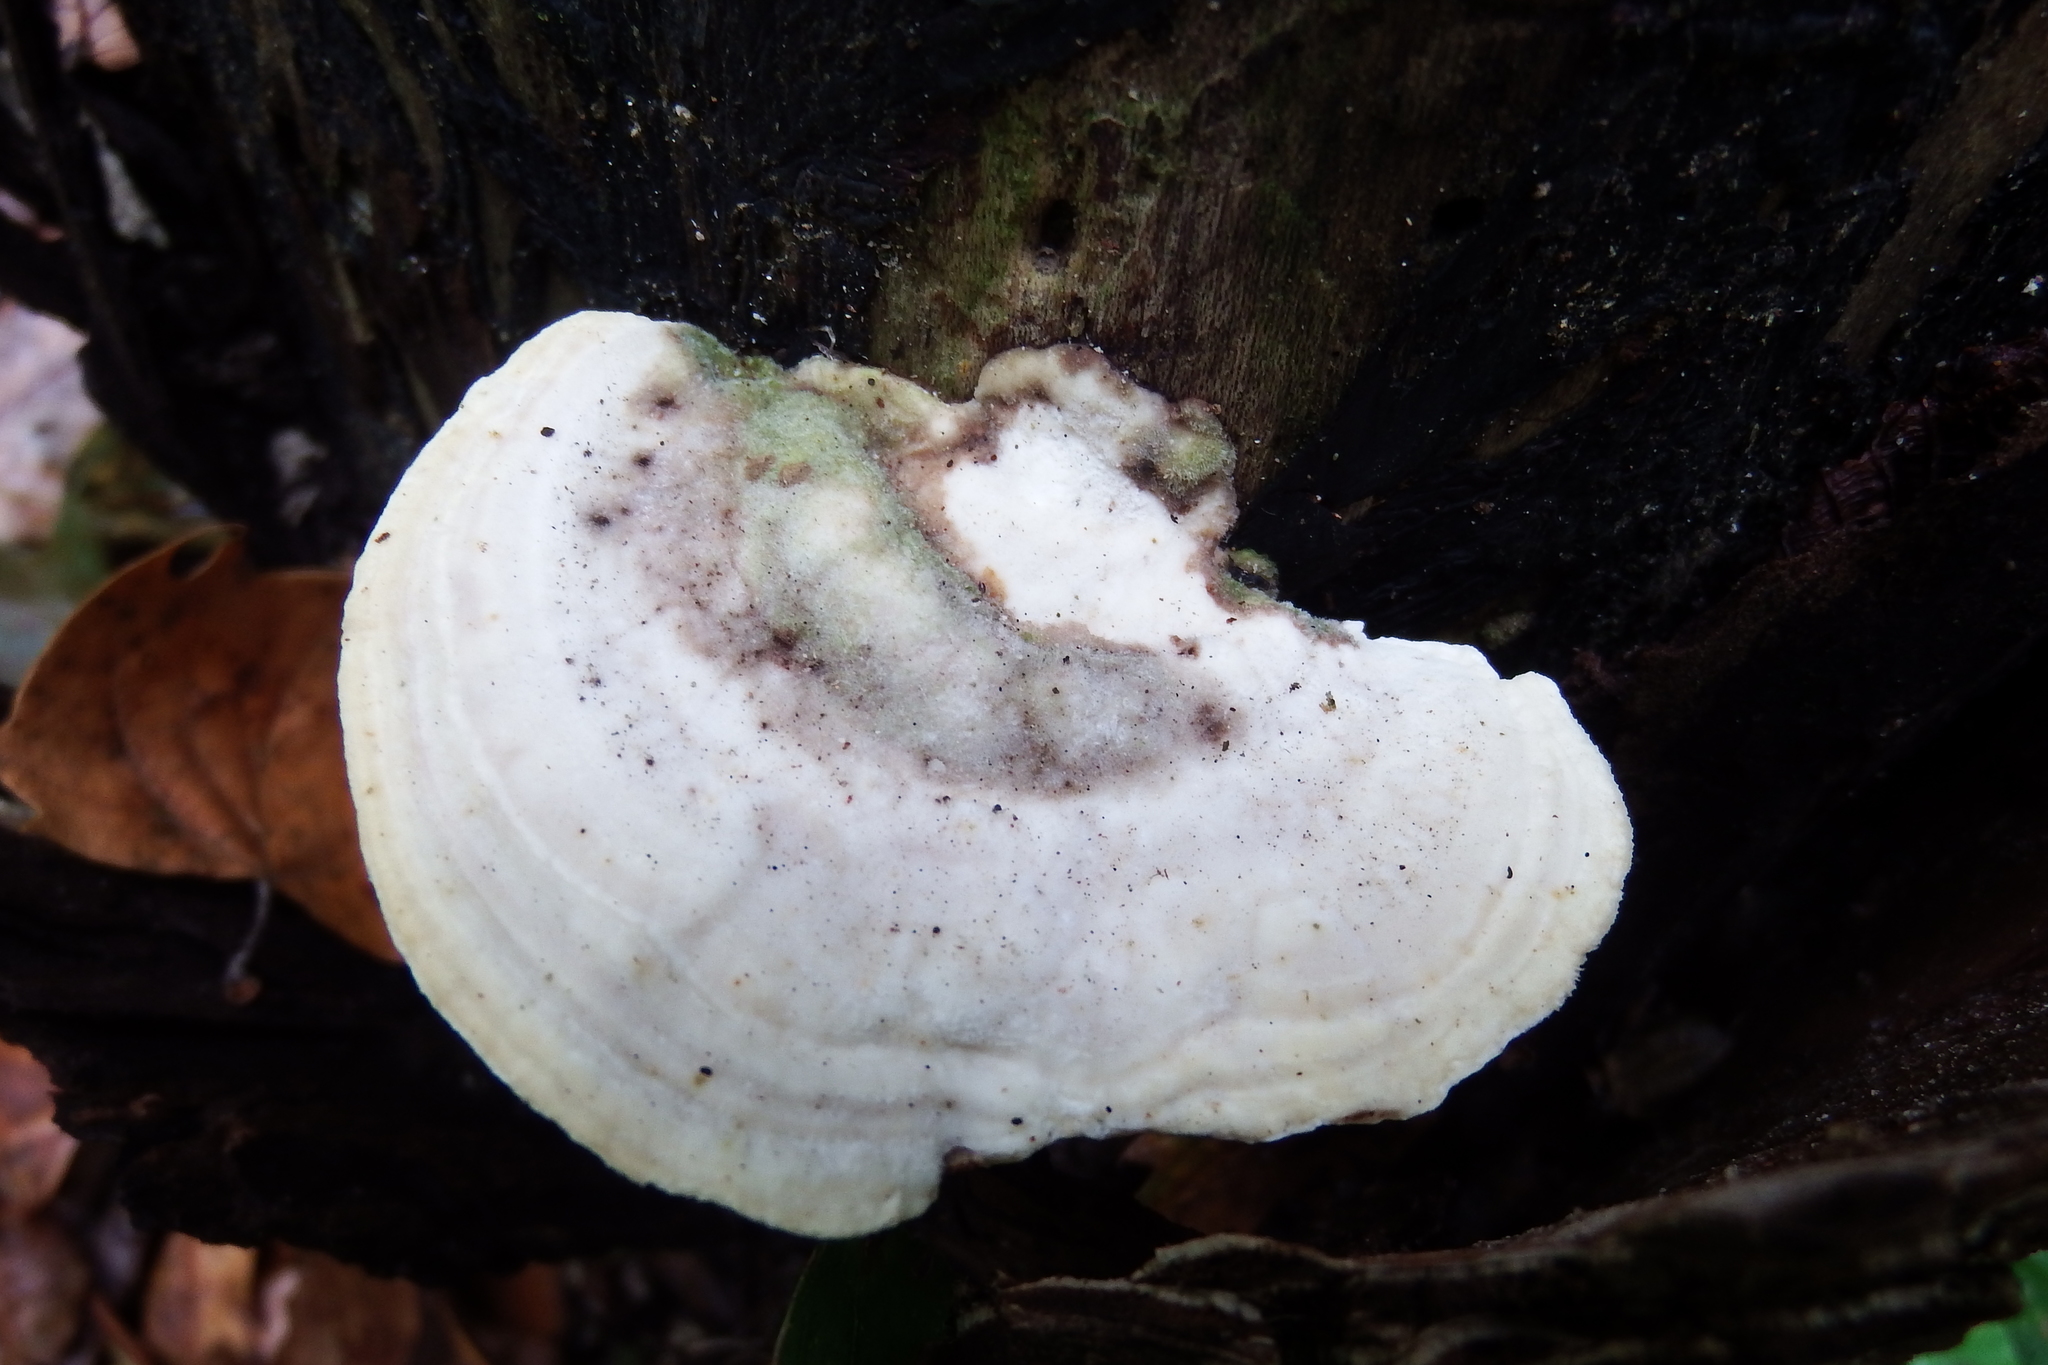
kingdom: Fungi
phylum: Basidiomycota
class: Agaricomycetes
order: Polyporales
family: Polyporaceae
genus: Trametes
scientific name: Trametes gibbosa
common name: Lumpy bracket
